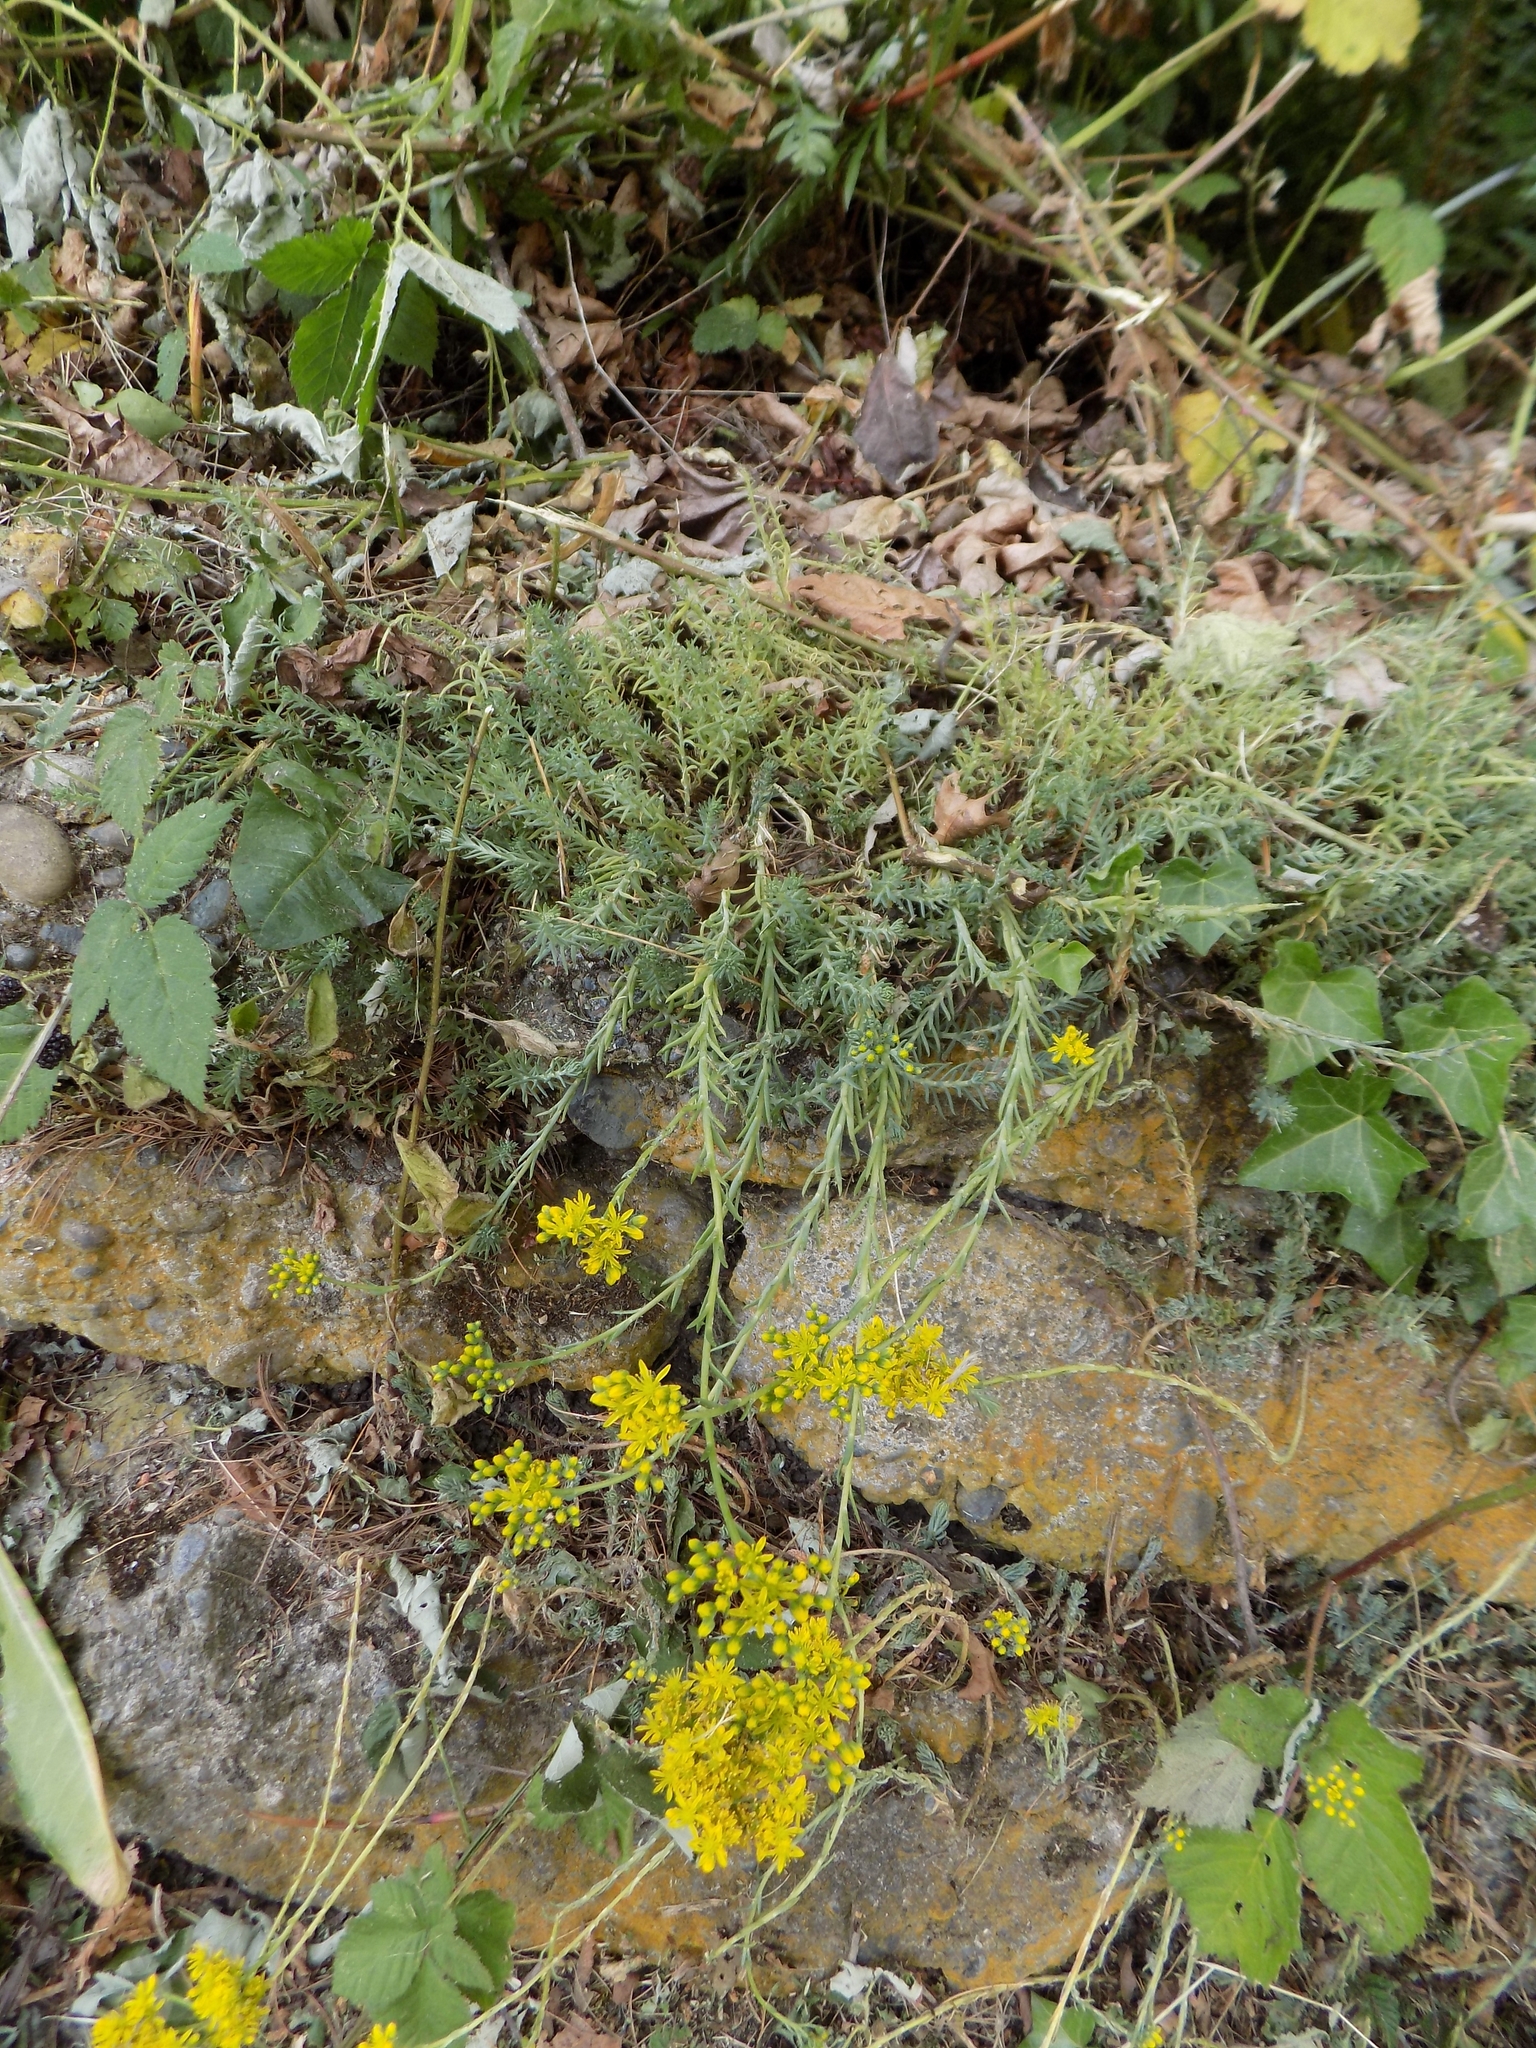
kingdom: Plantae
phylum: Tracheophyta
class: Magnoliopsida
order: Saxifragales
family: Crassulaceae
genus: Petrosedum
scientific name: Petrosedum rupestre
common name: Jenny's stonecrop
